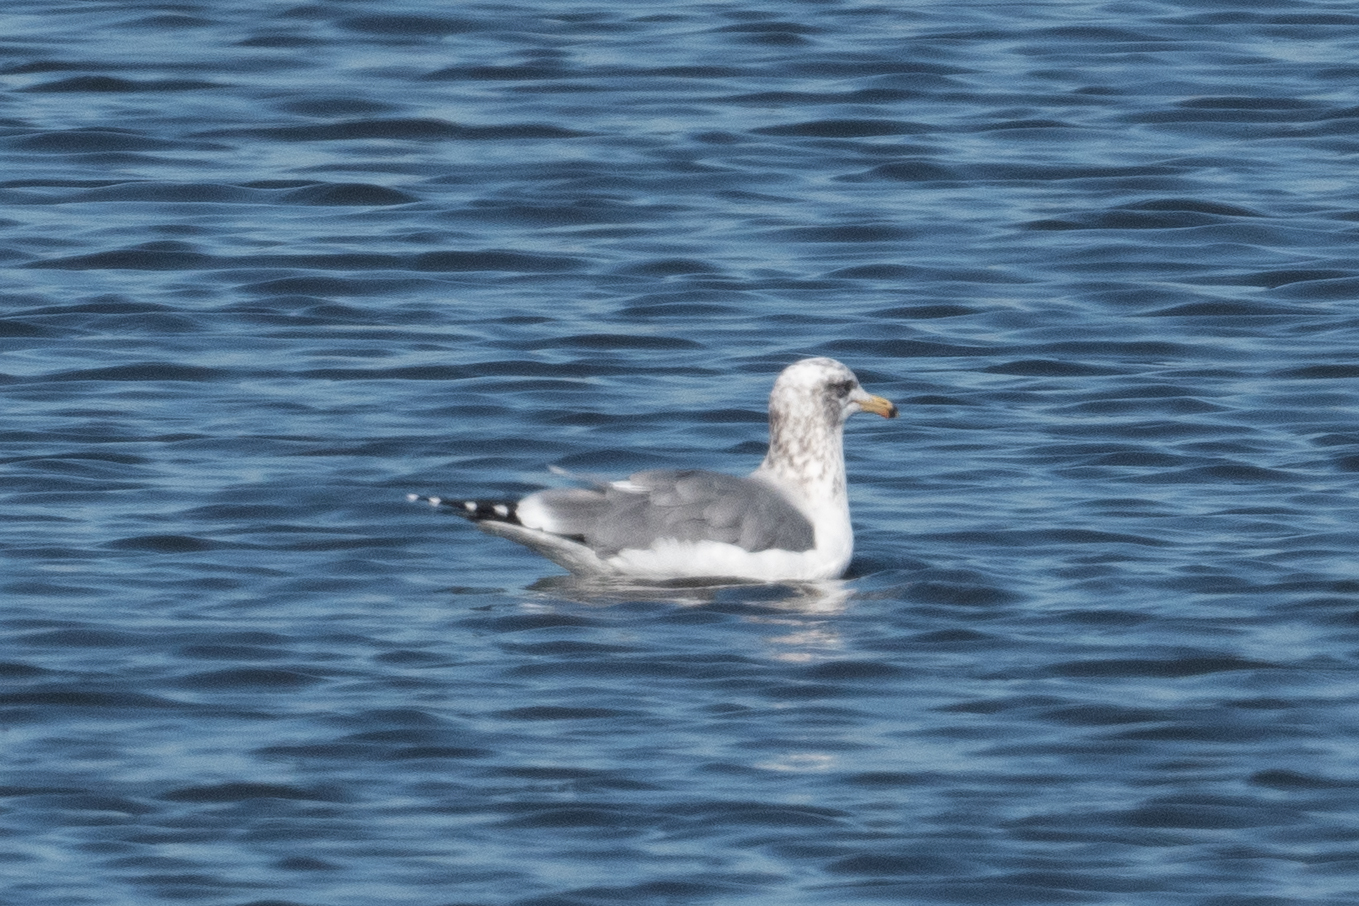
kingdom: Animalia
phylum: Chordata
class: Aves
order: Charadriiformes
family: Laridae
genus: Larus
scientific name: Larus californicus
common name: California gull
